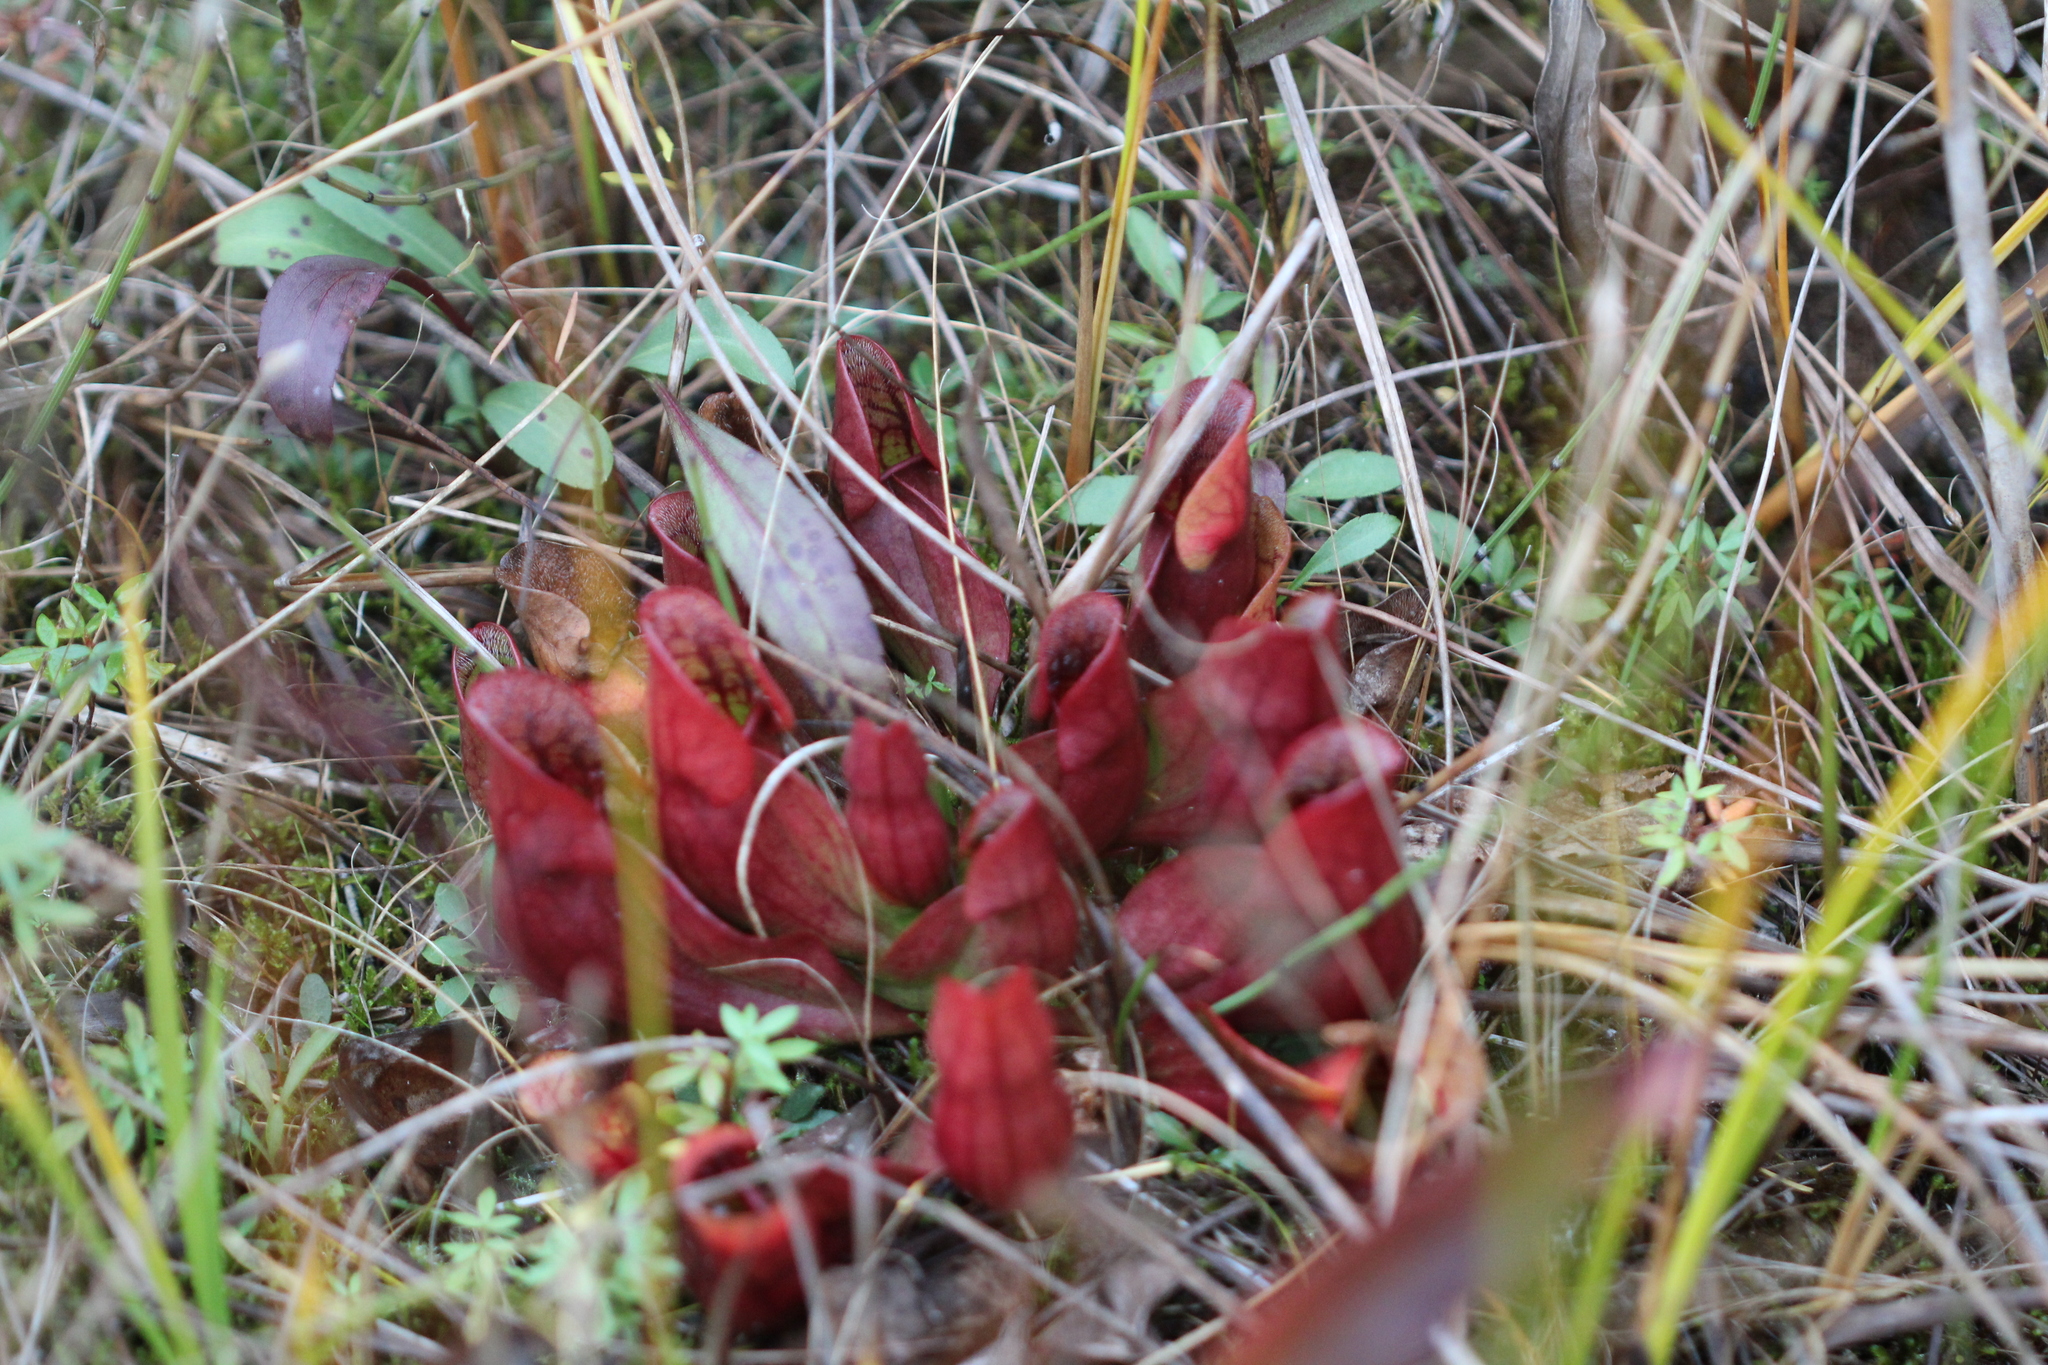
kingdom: Plantae
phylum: Tracheophyta
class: Magnoliopsida
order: Ericales
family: Sarraceniaceae
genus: Sarracenia
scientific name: Sarracenia purpurea
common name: Pitcherplant
